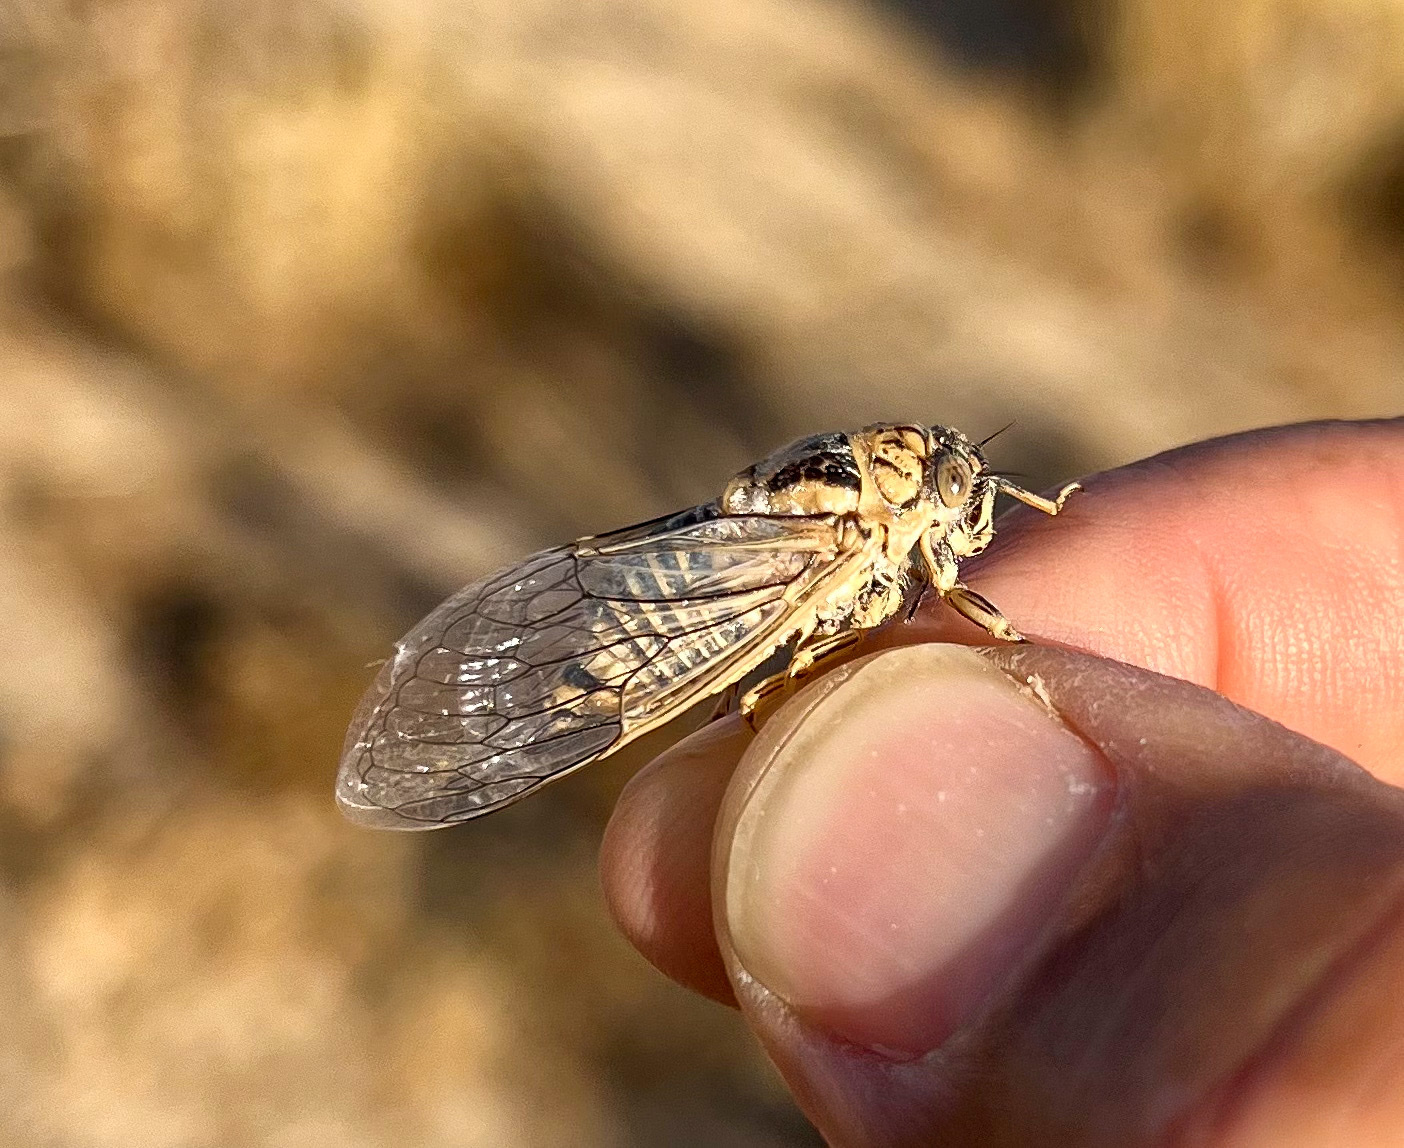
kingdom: Animalia
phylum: Arthropoda
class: Insecta
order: Hemiptera
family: Cicadidae
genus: Clidophleps
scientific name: Clidophleps vagans
